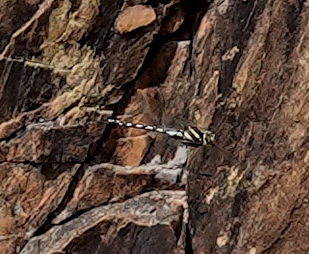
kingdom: Animalia
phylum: Arthropoda
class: Insecta
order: Odonata
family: Aeshnidae
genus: Zosteraeschna
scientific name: Zosteraeschna minuscula
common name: Friendly hawker
